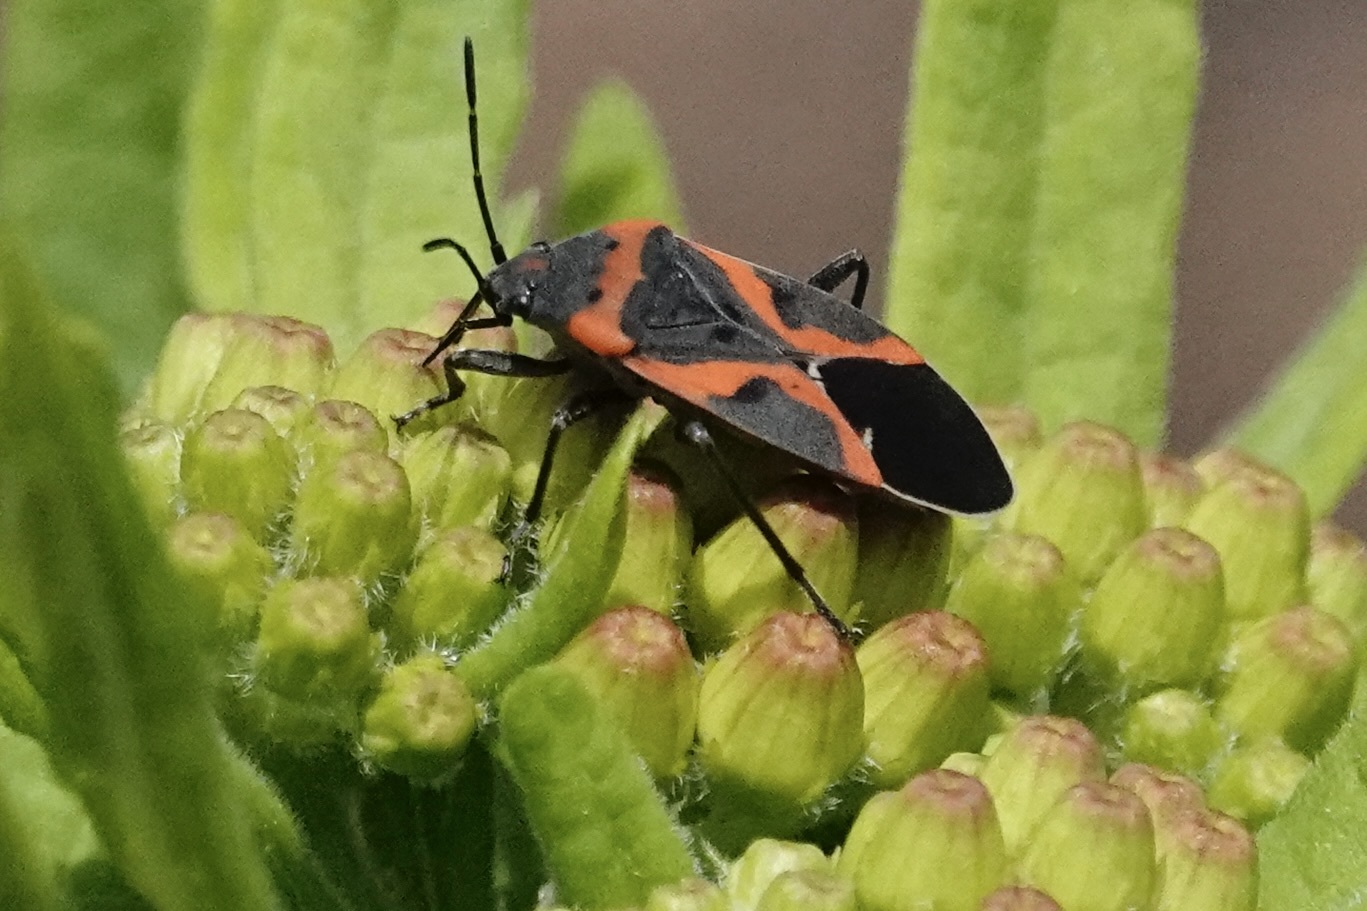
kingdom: Animalia
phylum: Arthropoda
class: Insecta
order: Hemiptera
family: Lygaeidae
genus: Lygaeus
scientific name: Lygaeus kalmii
